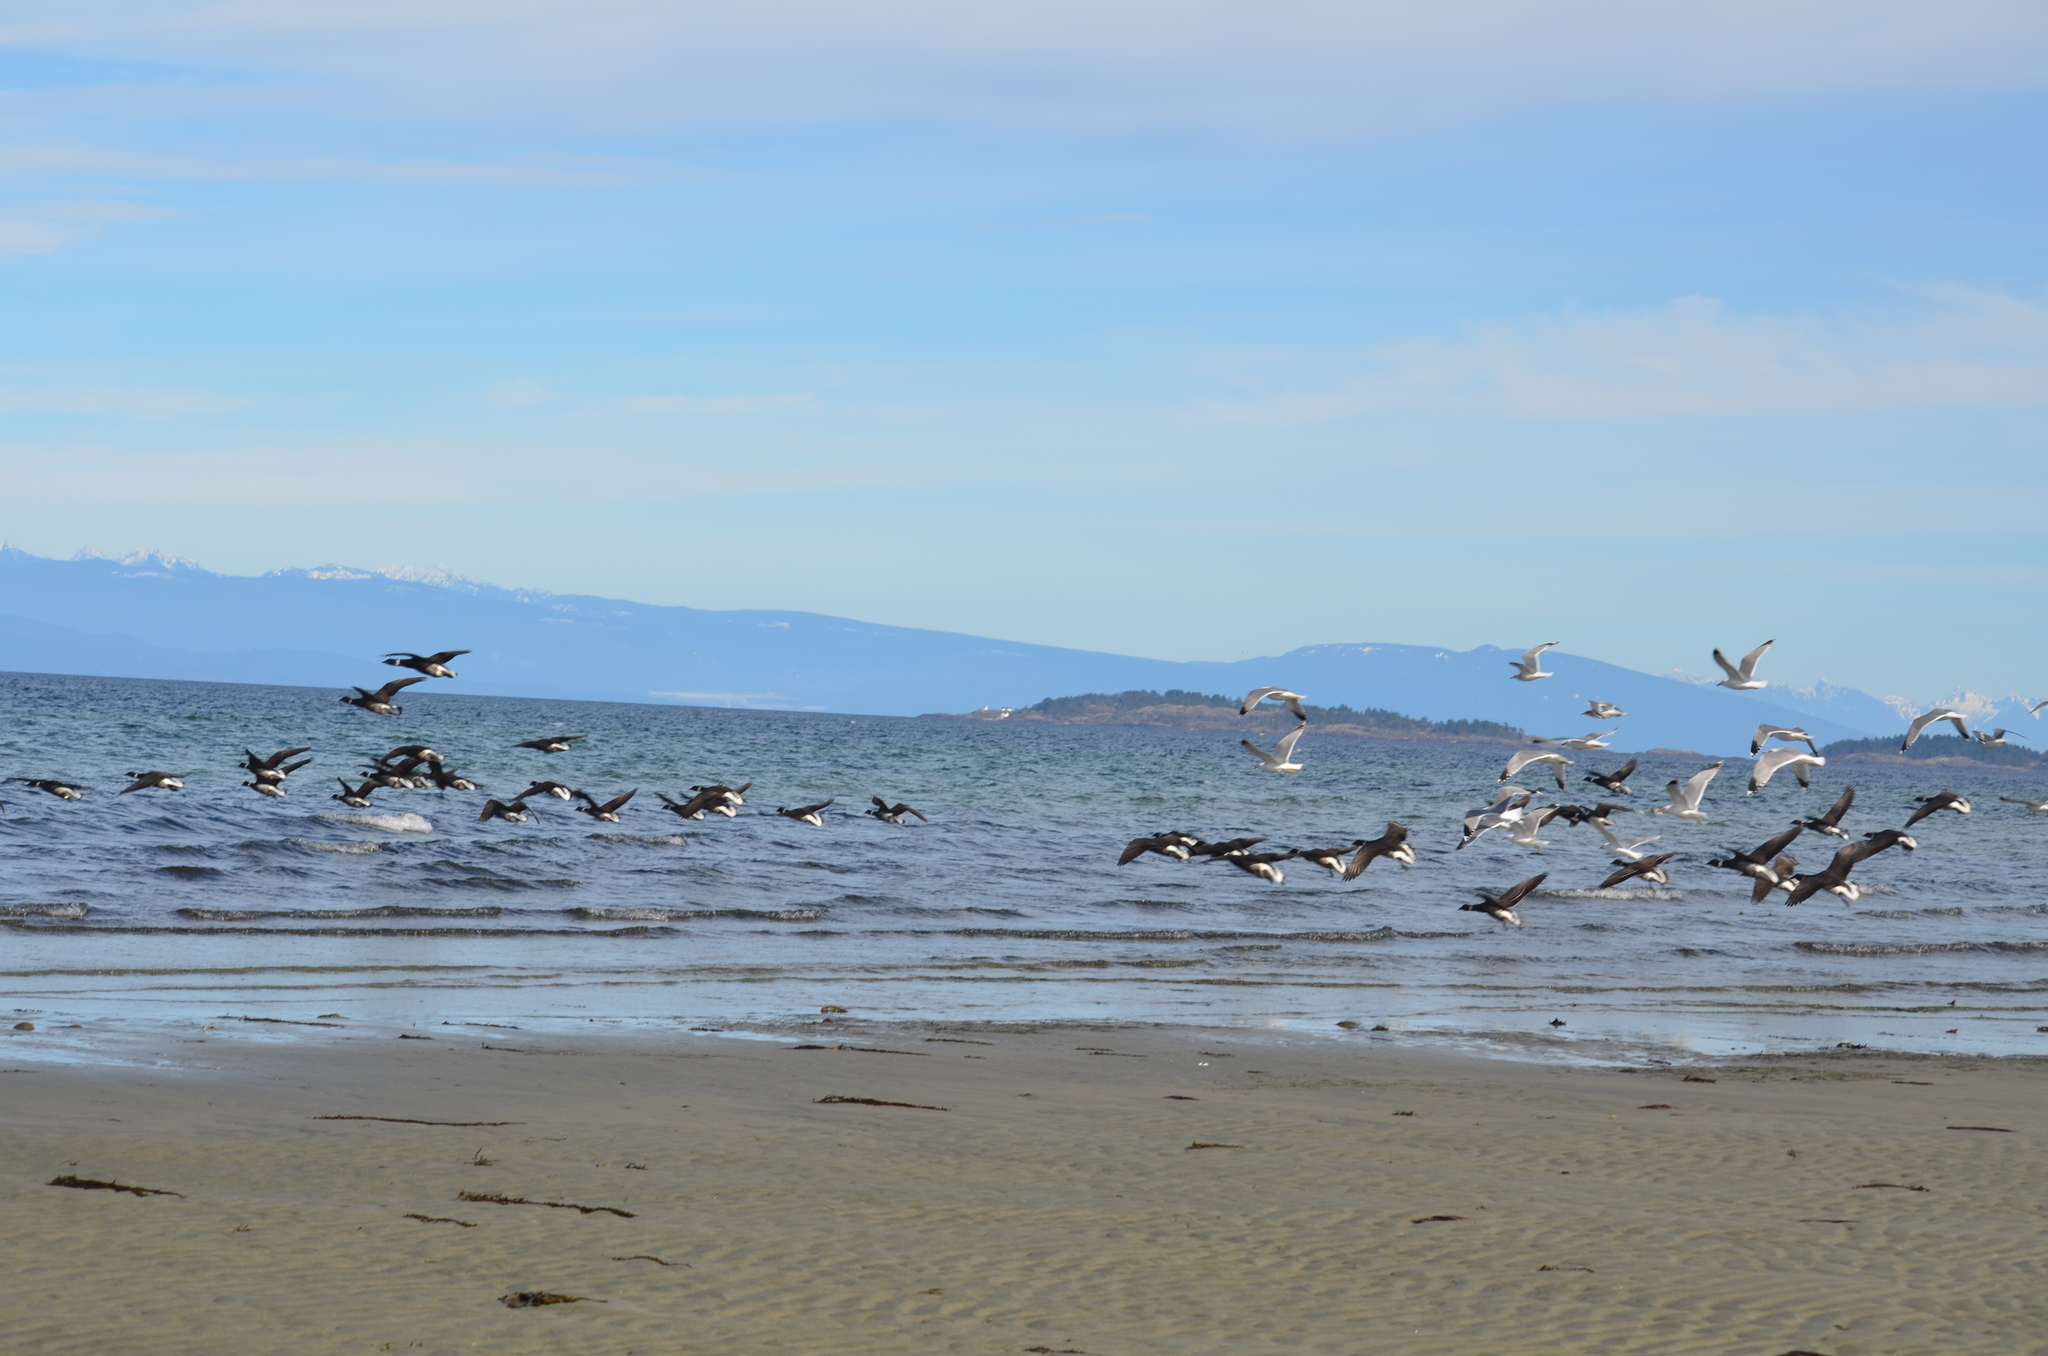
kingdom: Animalia
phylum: Chordata
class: Aves
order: Anseriformes
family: Anatidae
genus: Branta
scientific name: Branta bernicla
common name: Brant goose
